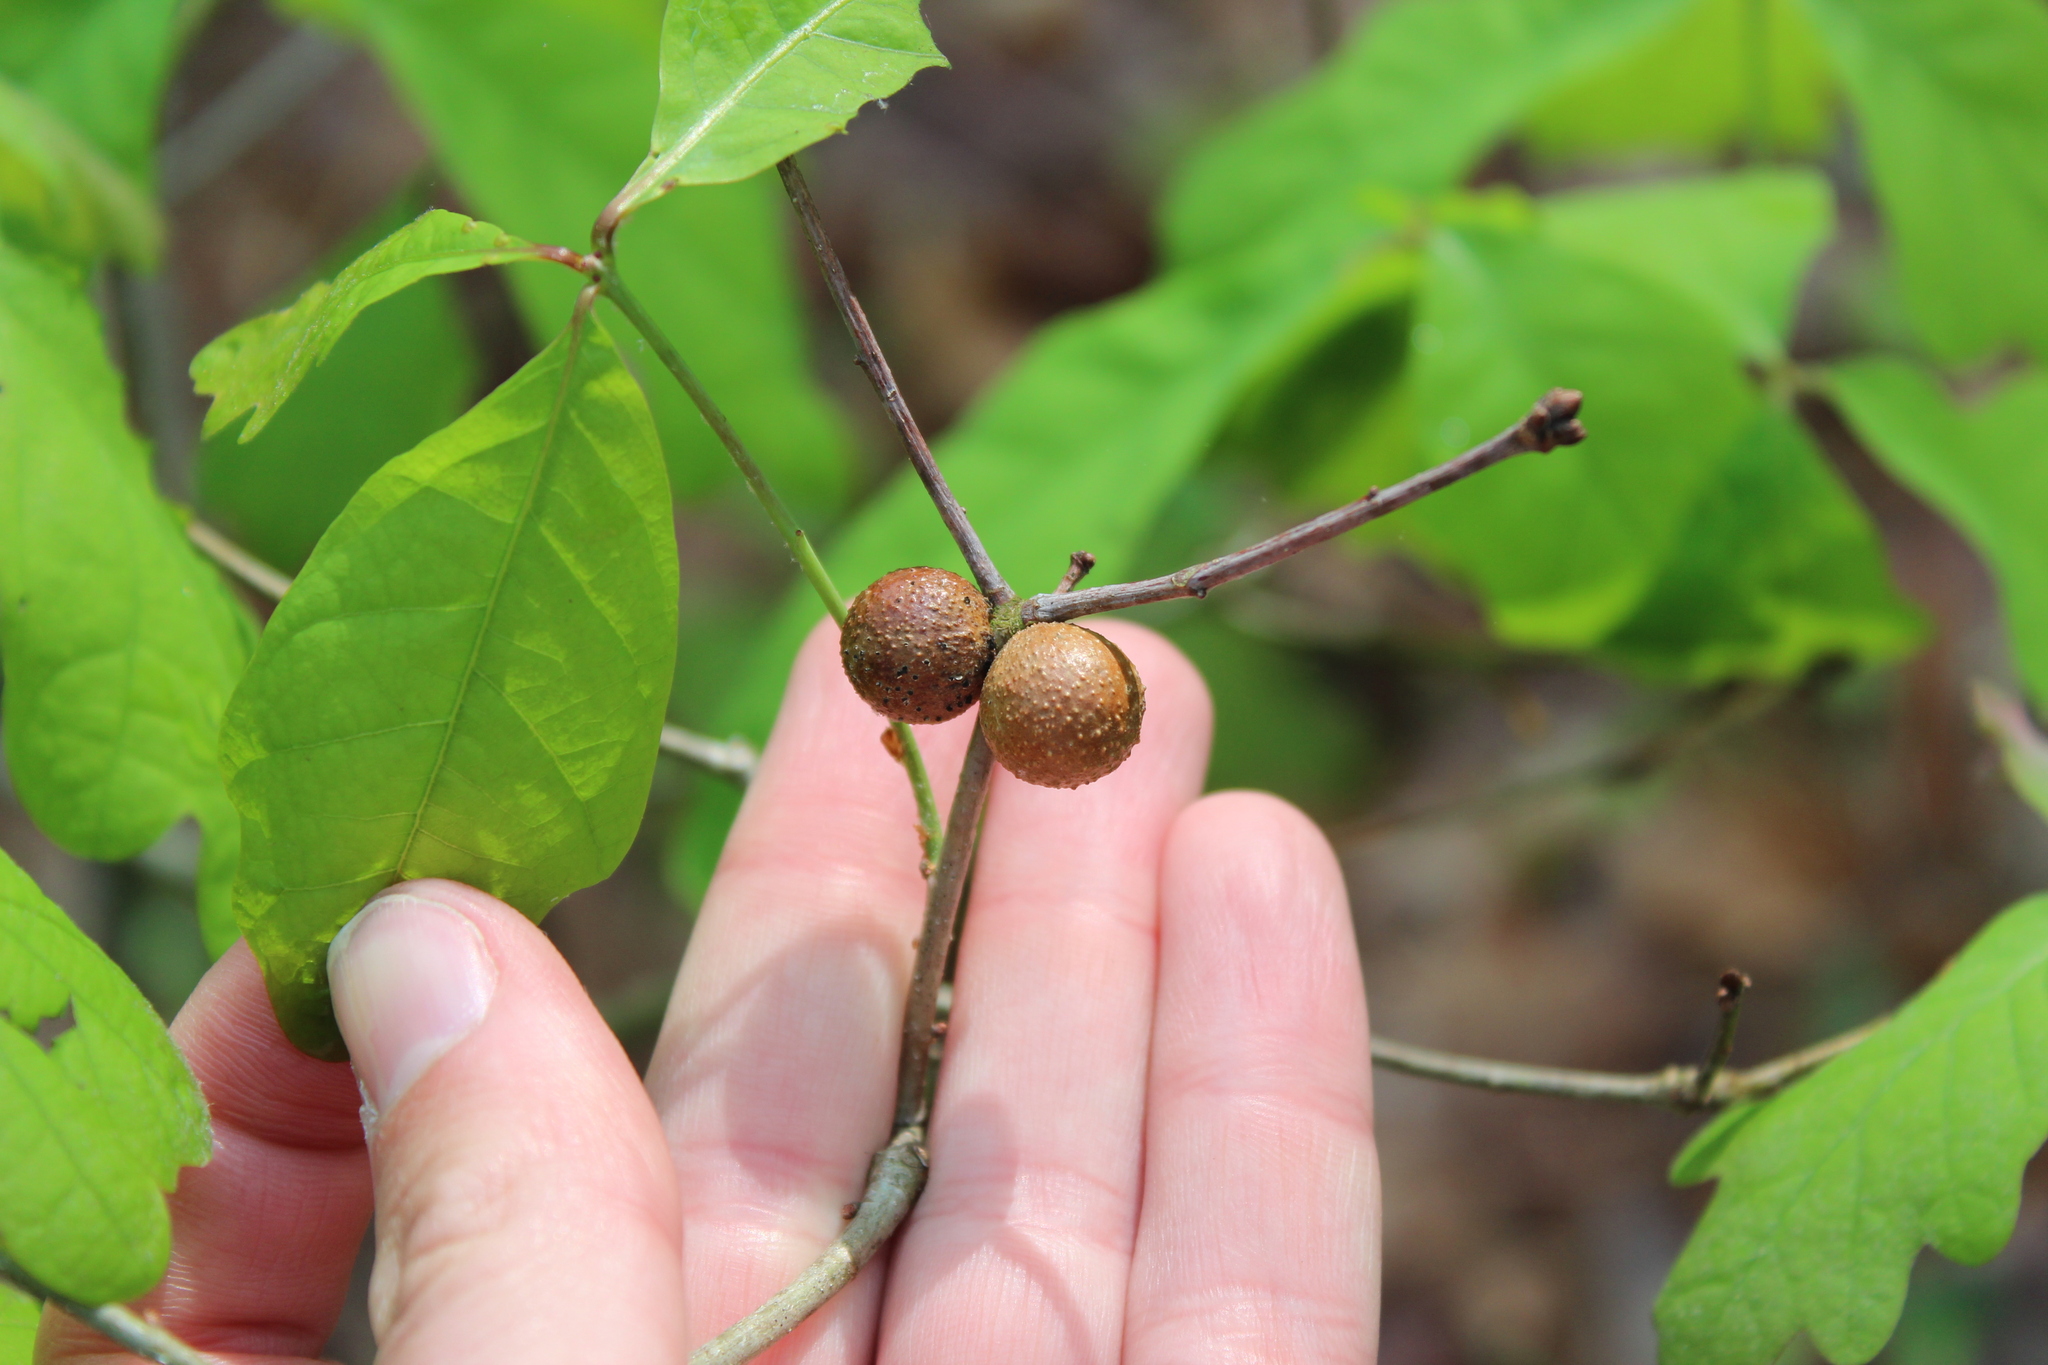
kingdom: Animalia
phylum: Arthropoda
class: Insecta
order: Hymenoptera
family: Cynipidae
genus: Disholcaspis
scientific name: Disholcaspis quercusglobulus
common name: Round bullet gall wasp
